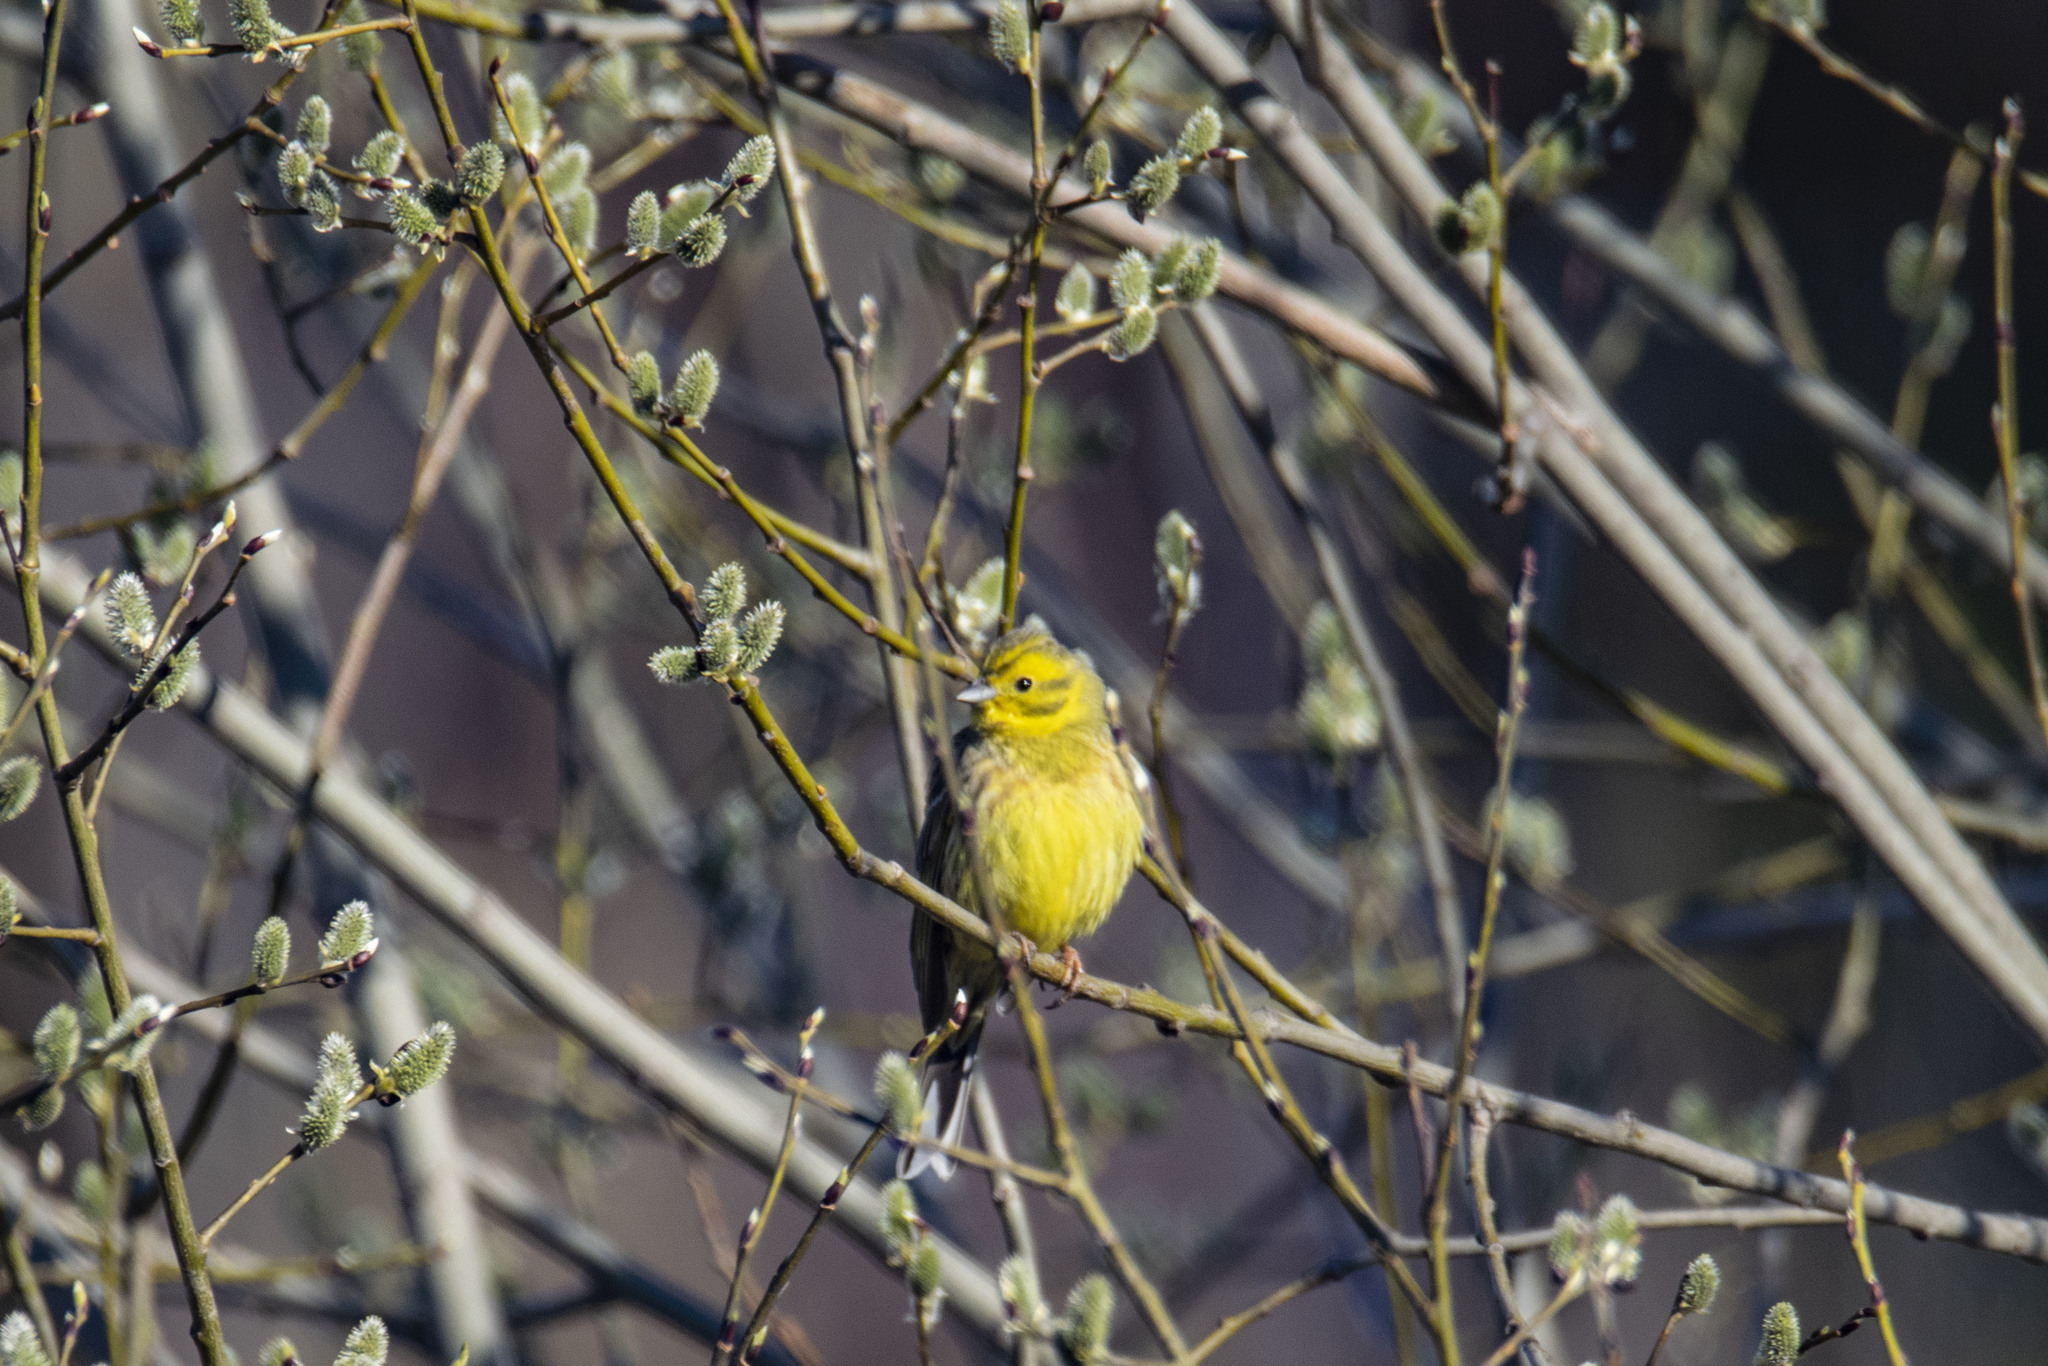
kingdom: Animalia
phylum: Chordata
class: Aves
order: Passeriformes
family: Emberizidae
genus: Emberiza
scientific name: Emberiza citrinella
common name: Yellowhammer
